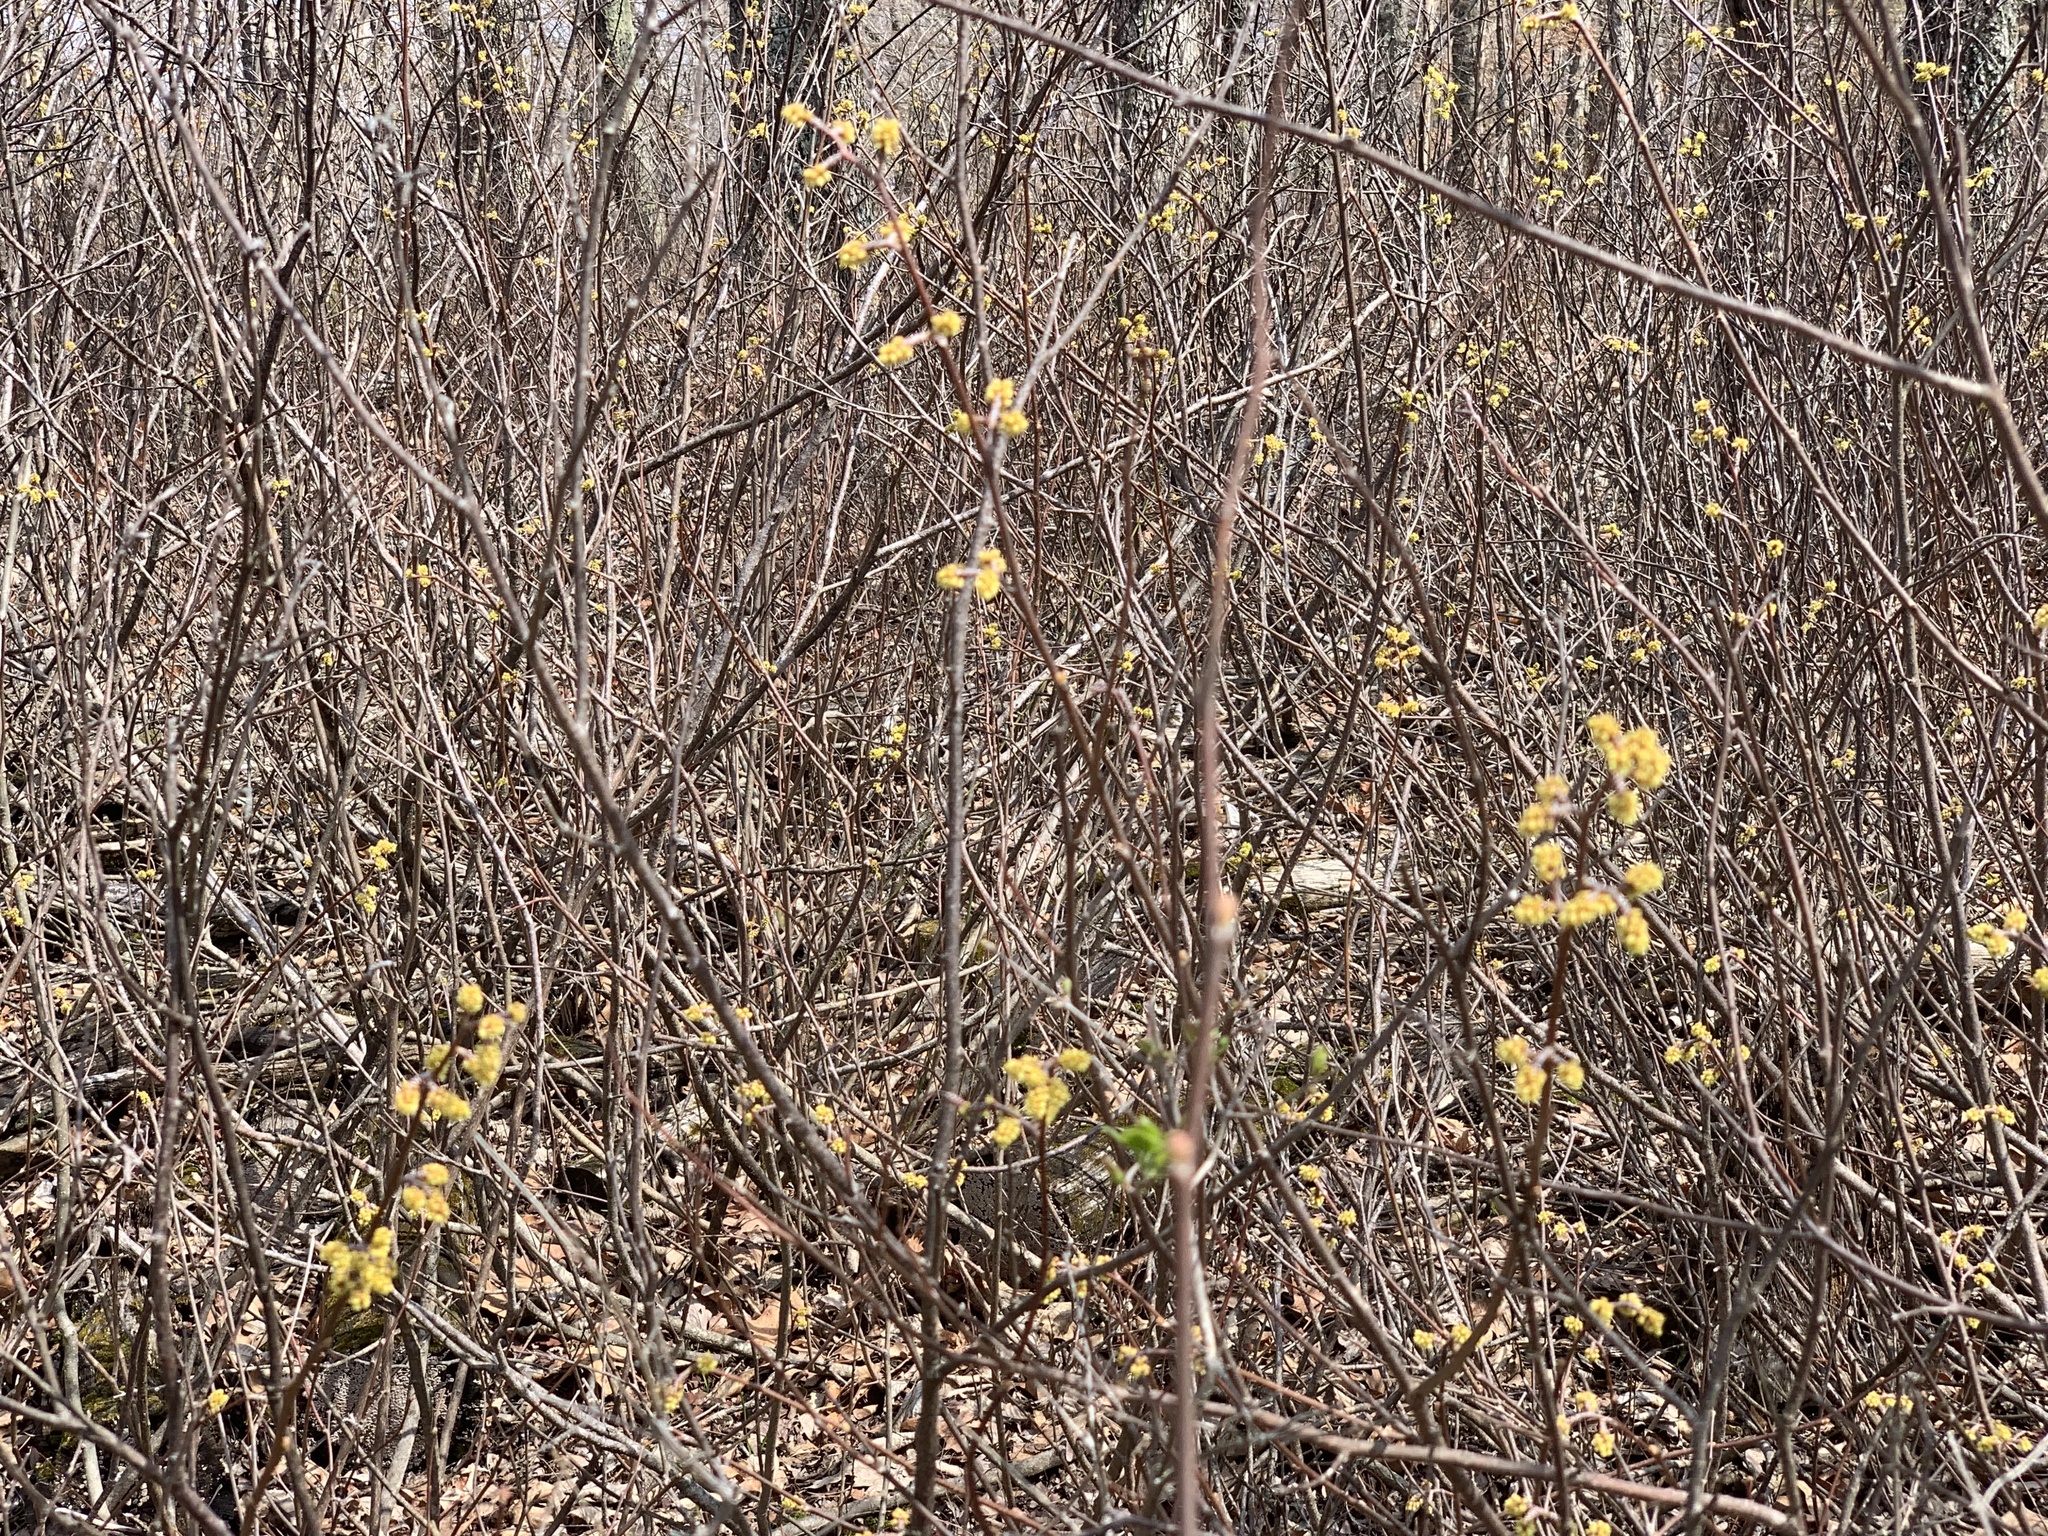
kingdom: Plantae
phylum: Tracheophyta
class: Magnoliopsida
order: Sapindales
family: Anacardiaceae
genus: Rhus
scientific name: Rhus aromatica
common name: Aromatic sumac
